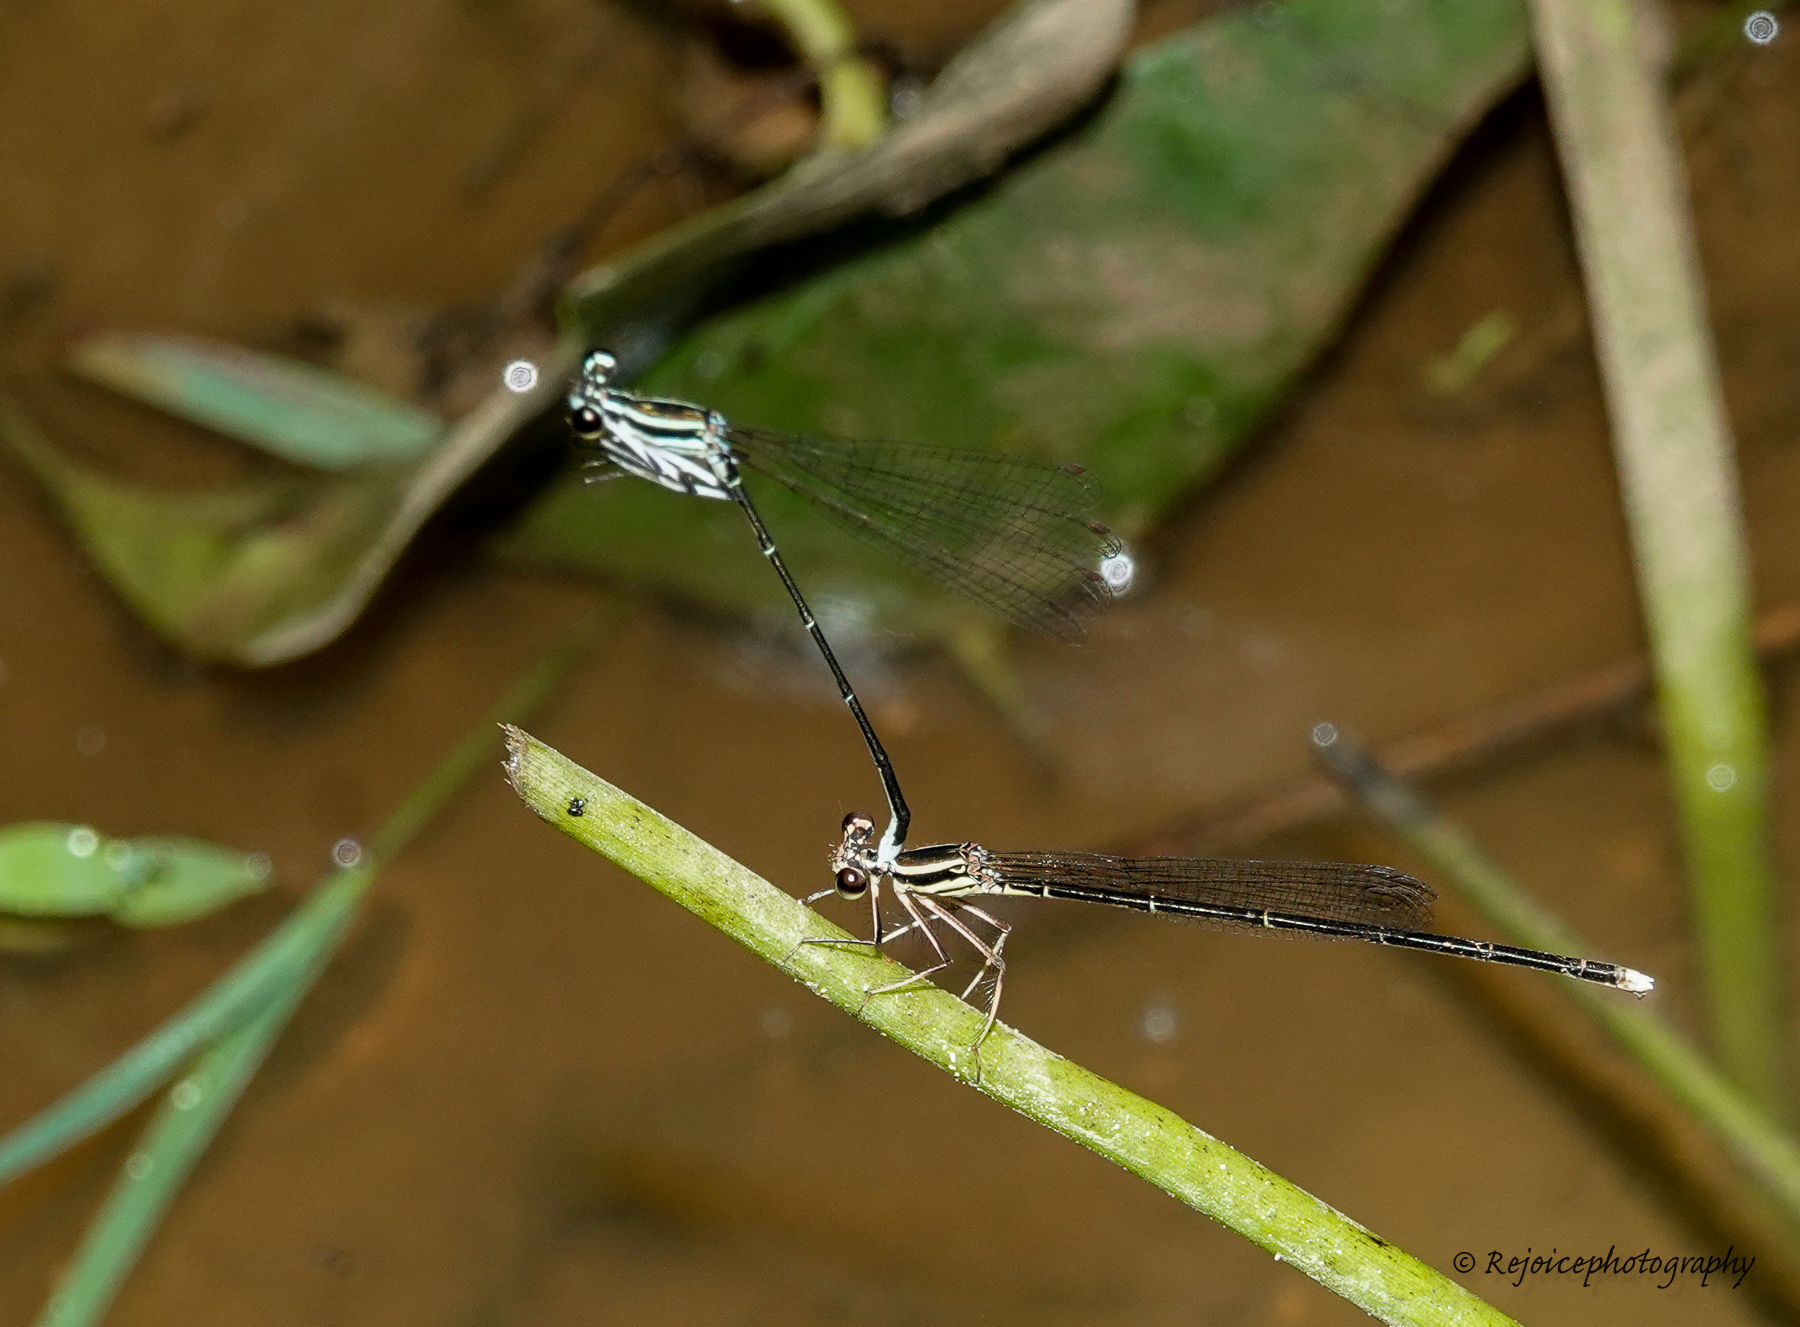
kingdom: Animalia
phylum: Arthropoda
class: Insecta
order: Odonata
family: Platycnemididae
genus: Pseudocopera
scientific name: Pseudocopera ciliata
